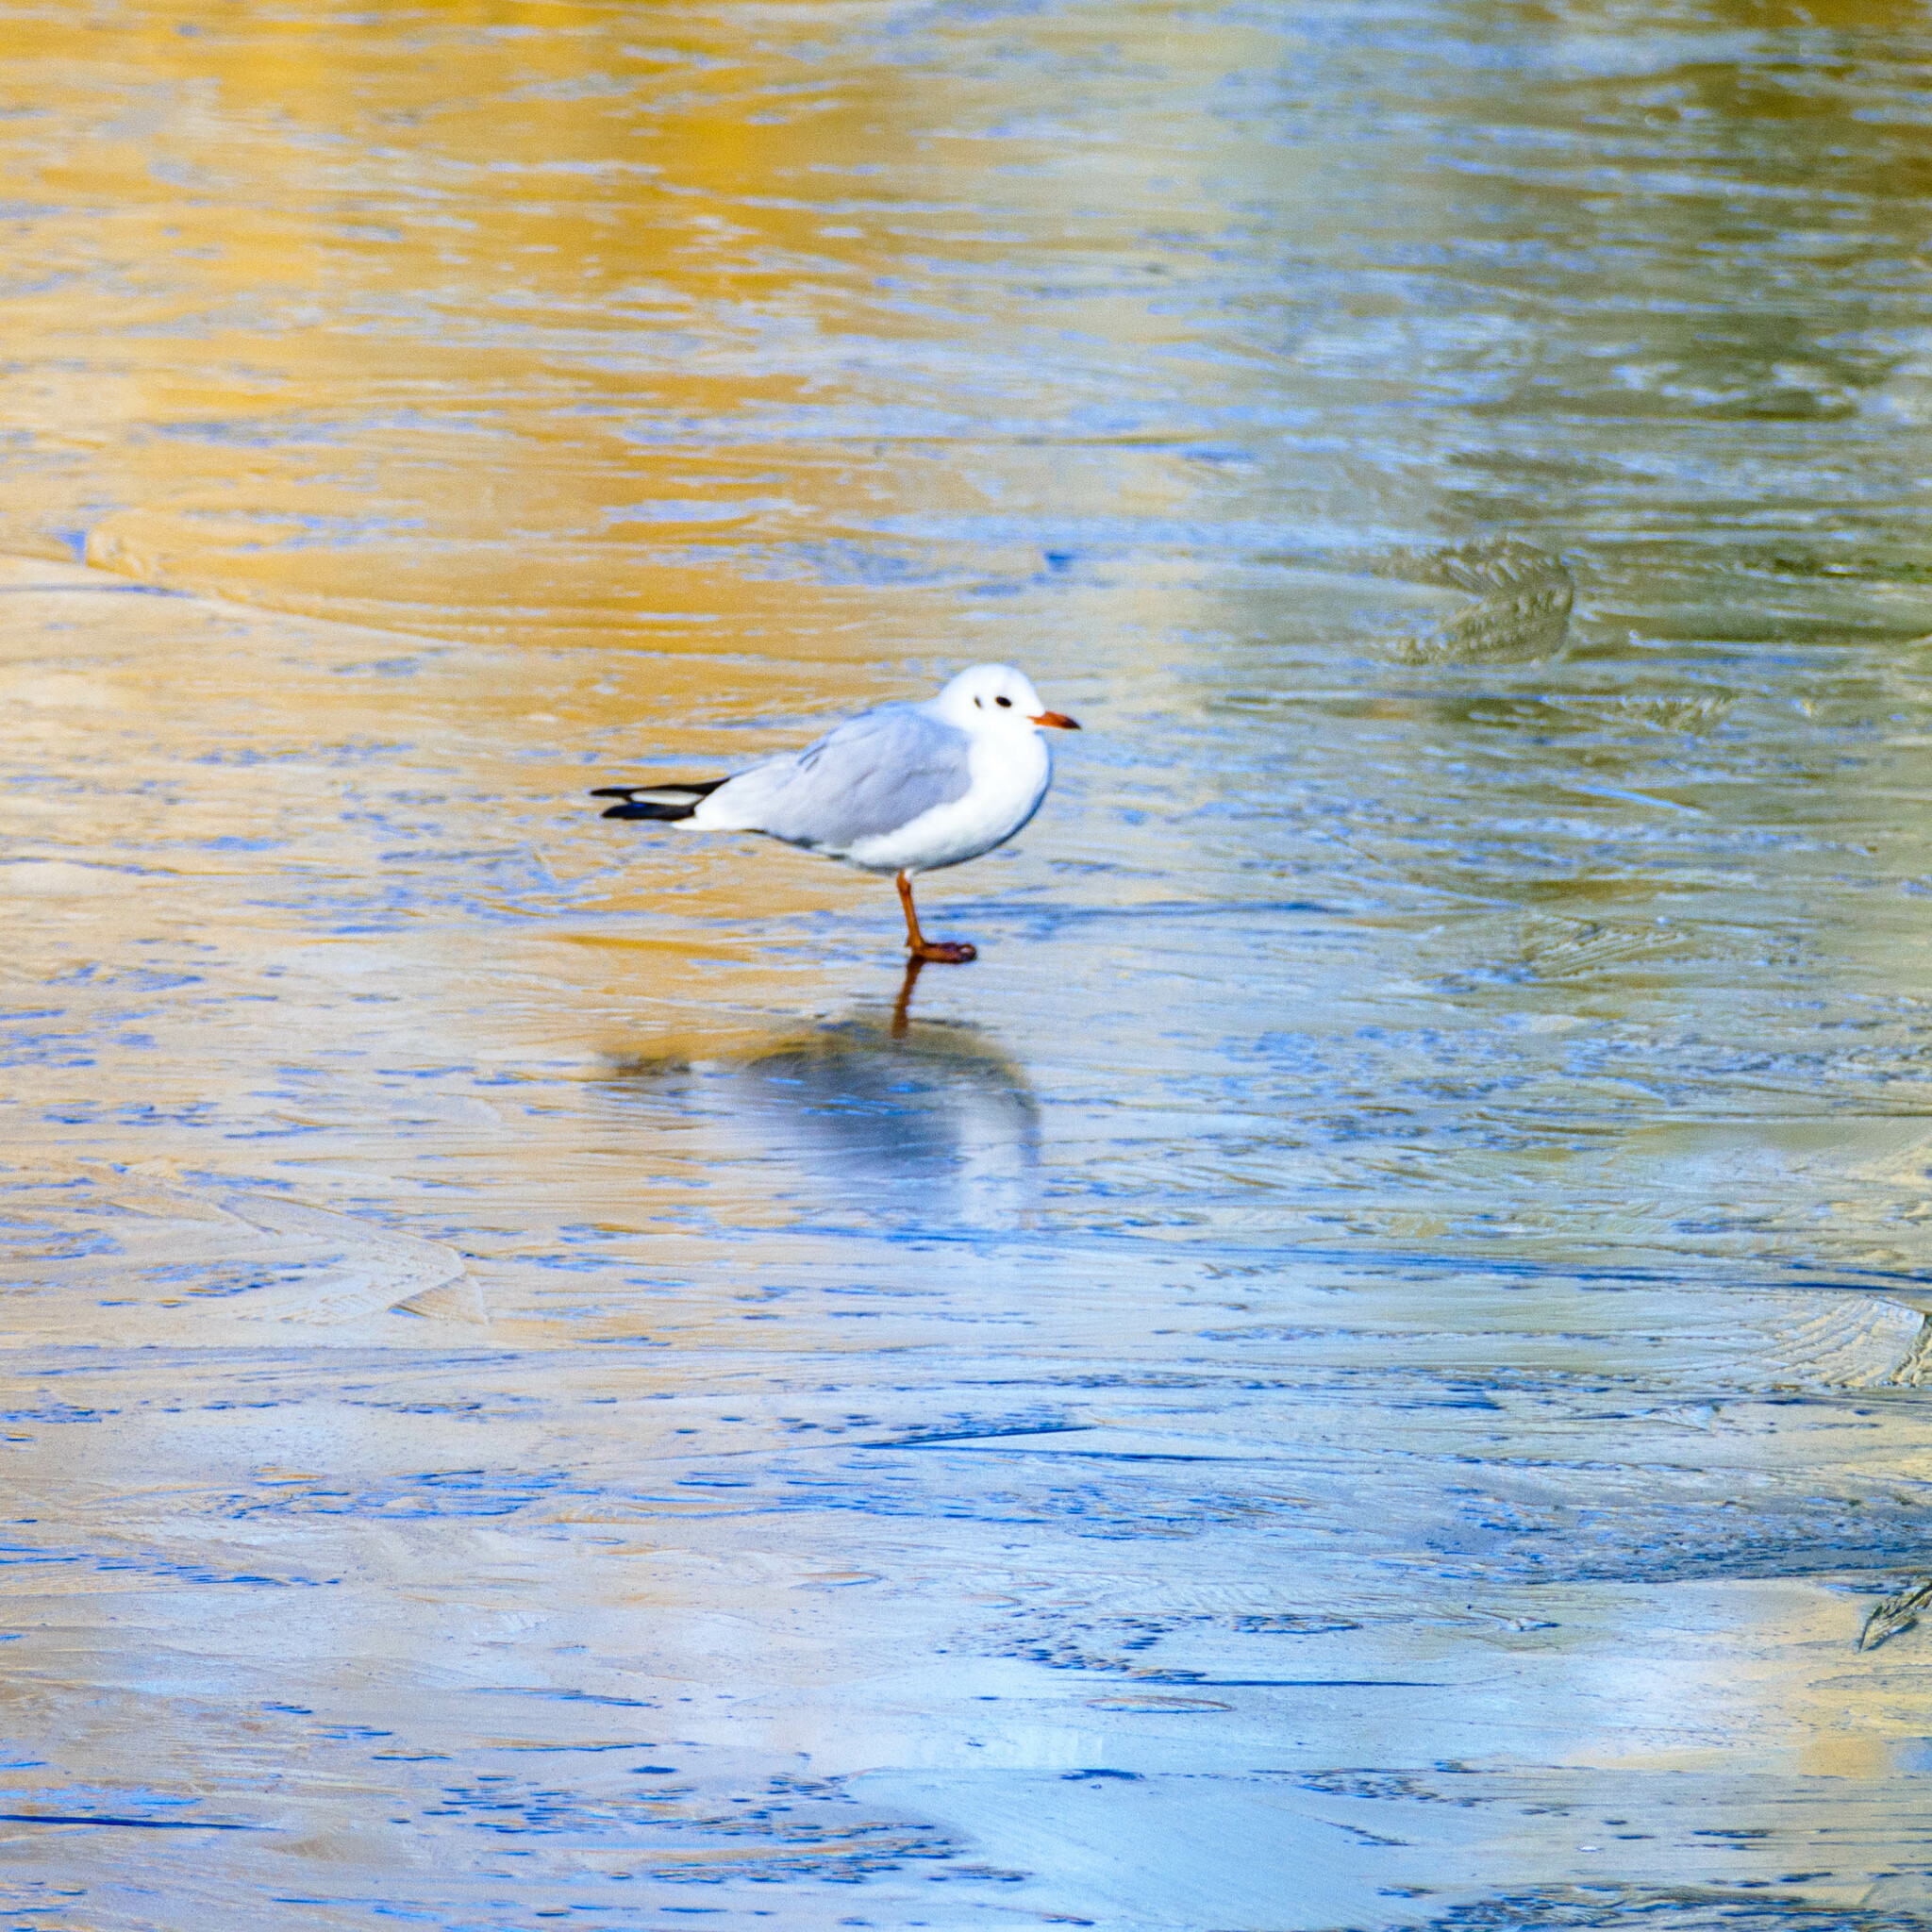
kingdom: Animalia
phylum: Chordata
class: Aves
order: Charadriiformes
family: Laridae
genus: Chroicocephalus
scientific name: Chroicocephalus ridibundus
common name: Black-headed gull
